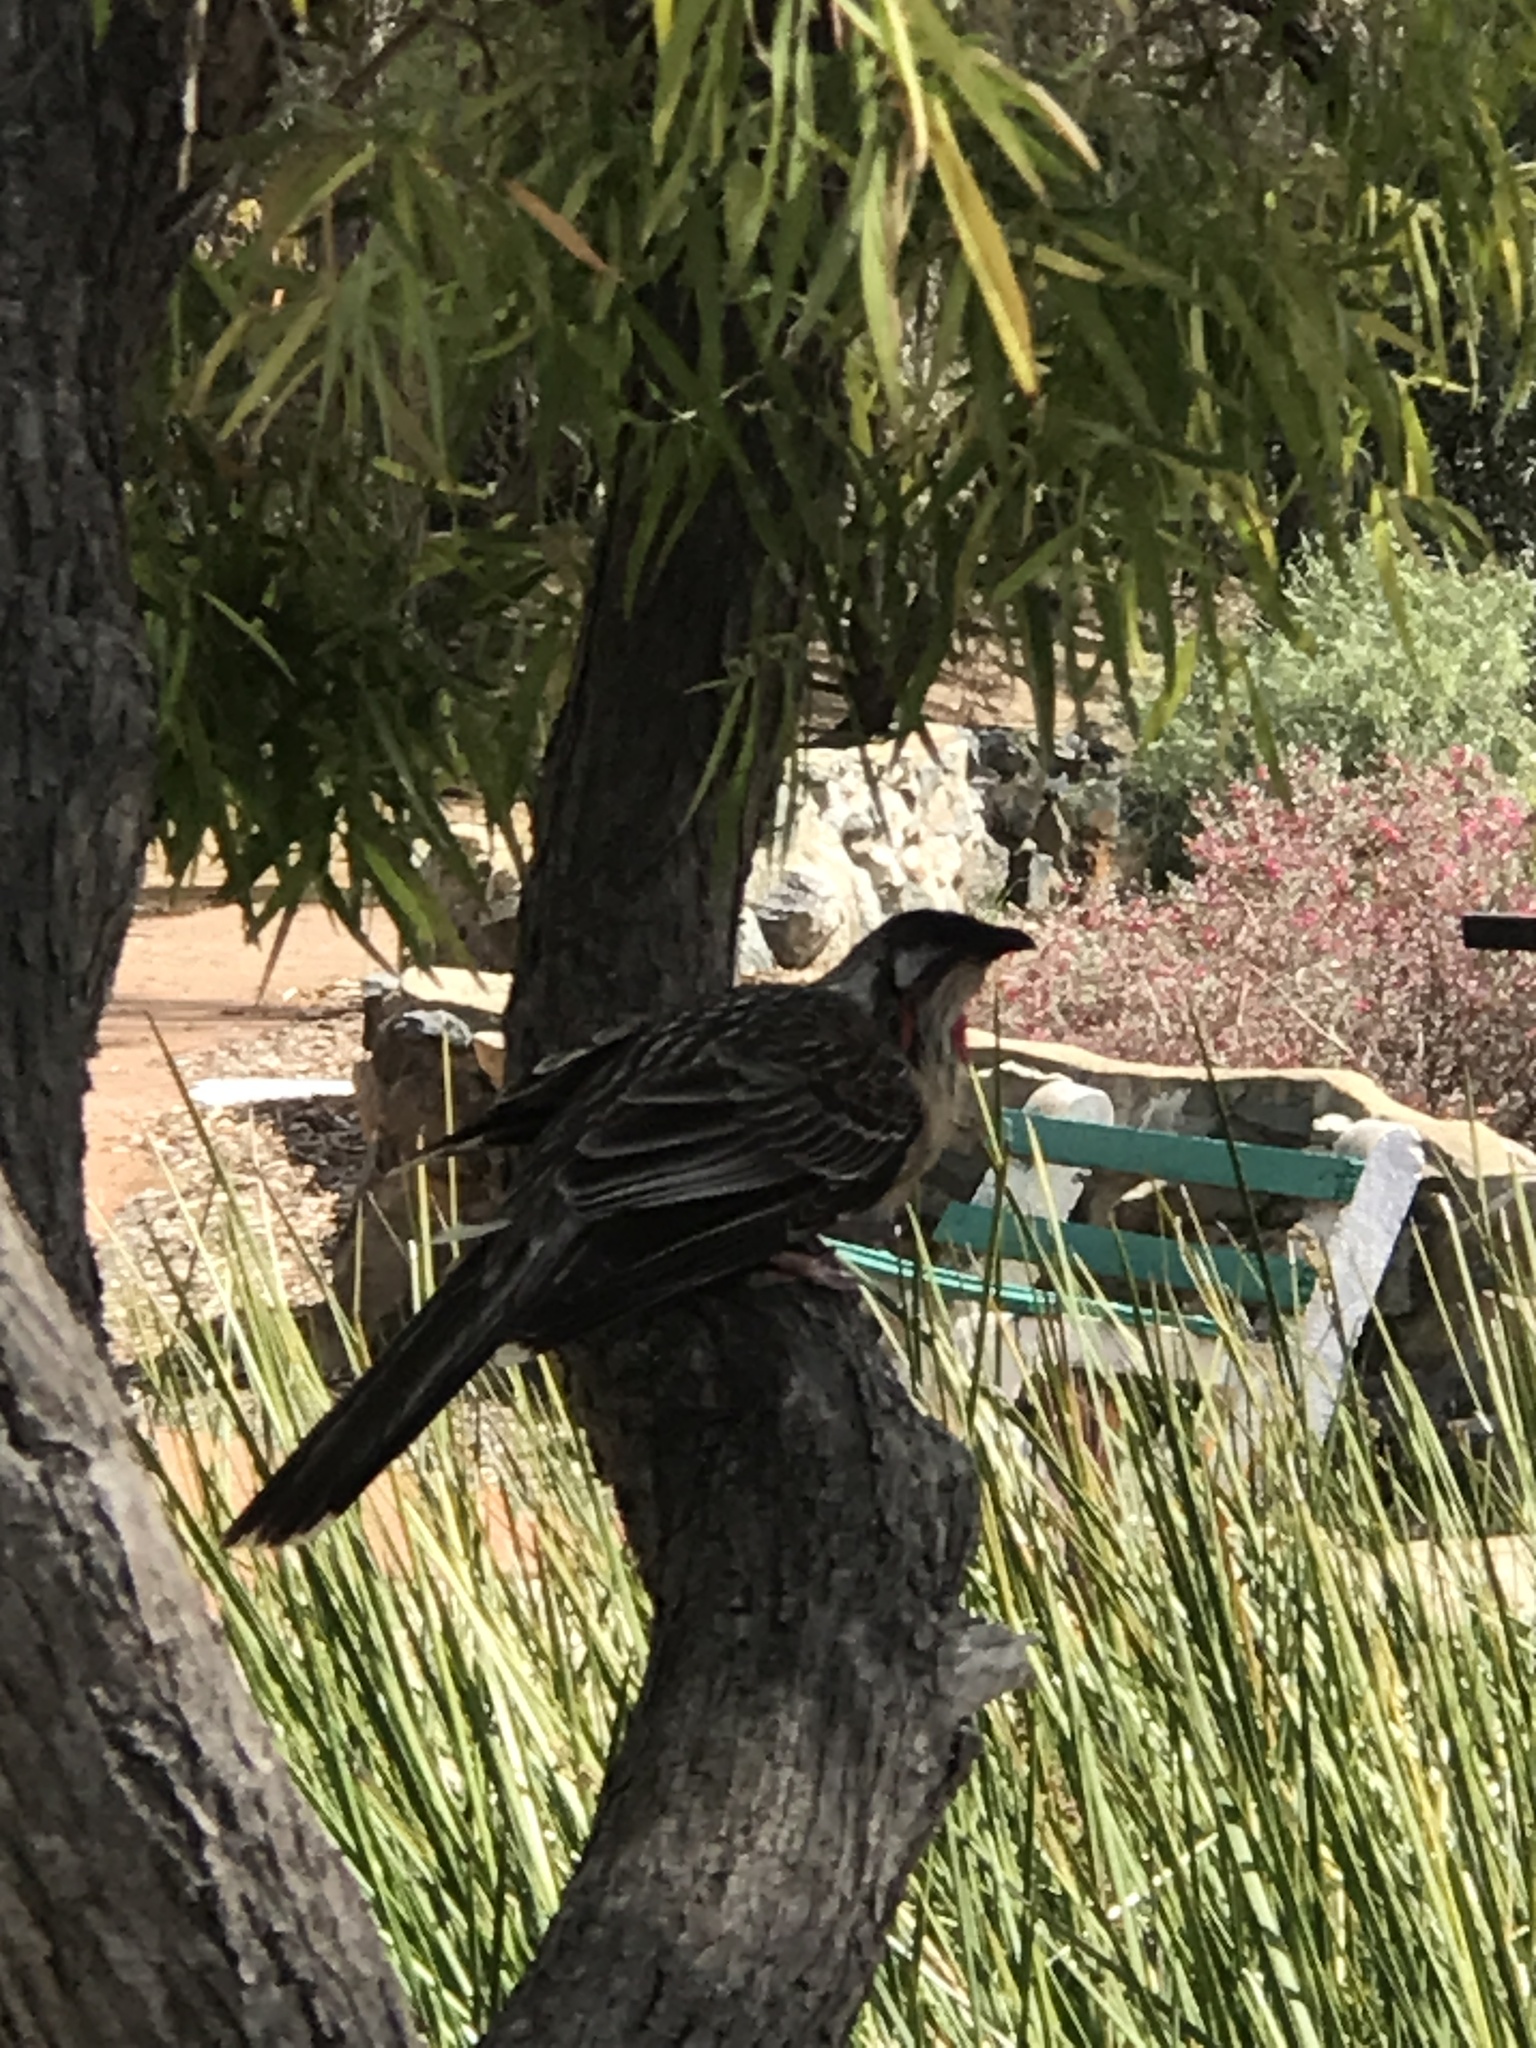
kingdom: Animalia
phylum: Chordata
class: Aves
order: Passeriformes
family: Meliphagidae
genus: Anthochaera
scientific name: Anthochaera carunculata
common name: Red wattlebird
